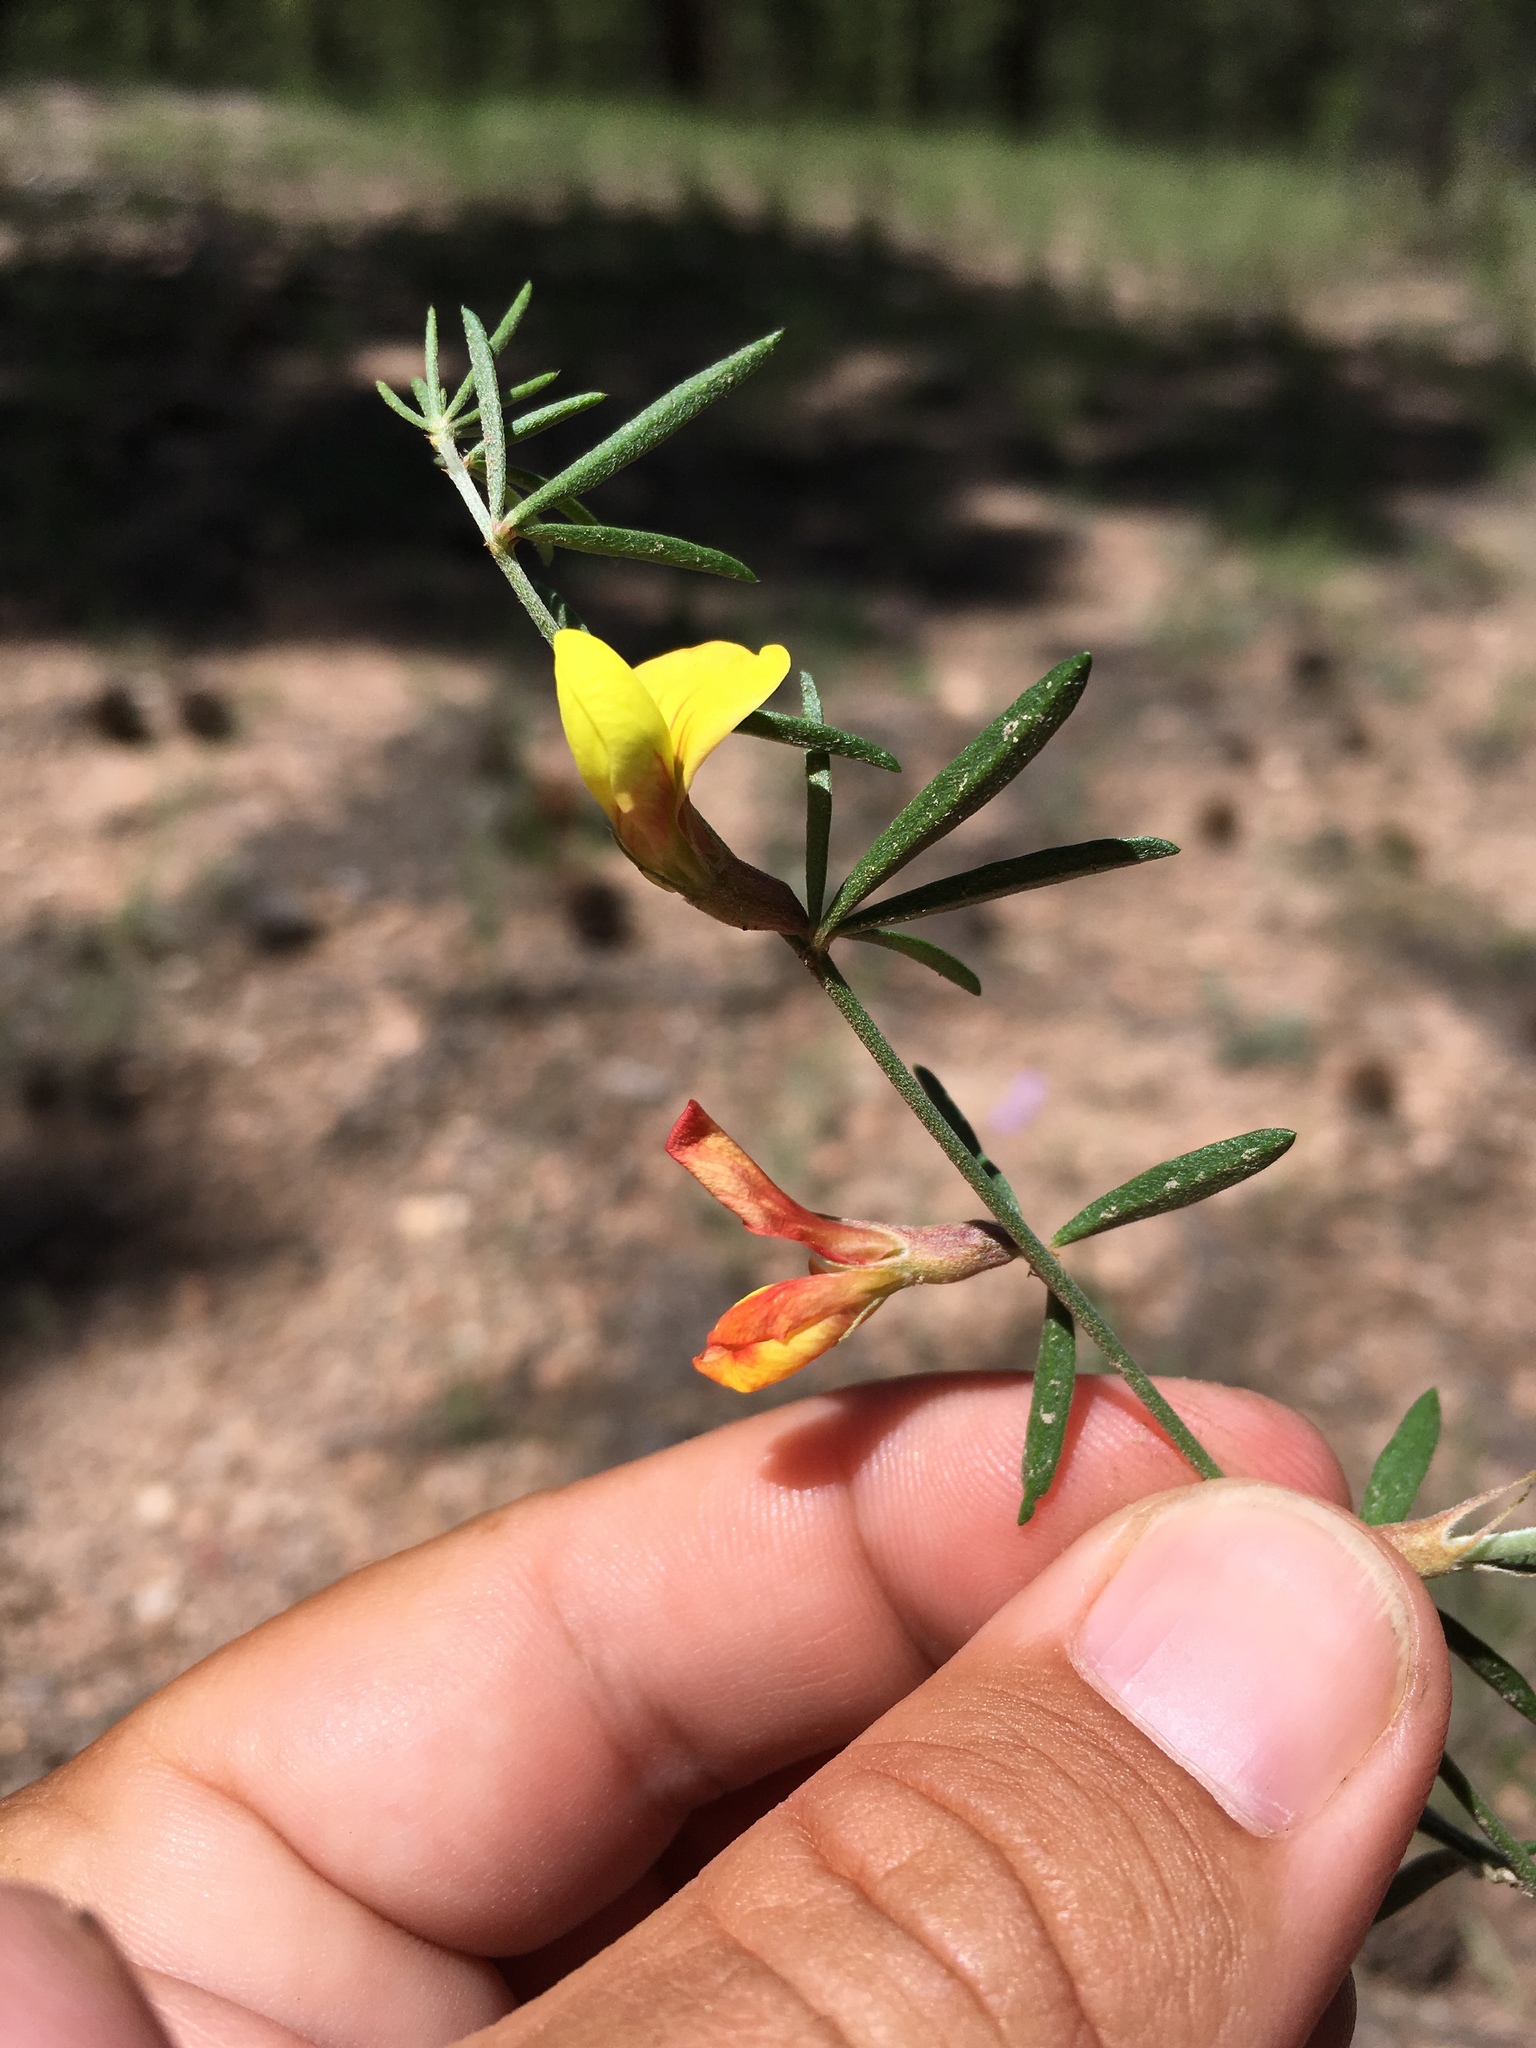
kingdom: Plantae
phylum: Tracheophyta
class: Magnoliopsida
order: Fabales
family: Fabaceae
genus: Acmispon
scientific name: Acmispon wrightii
